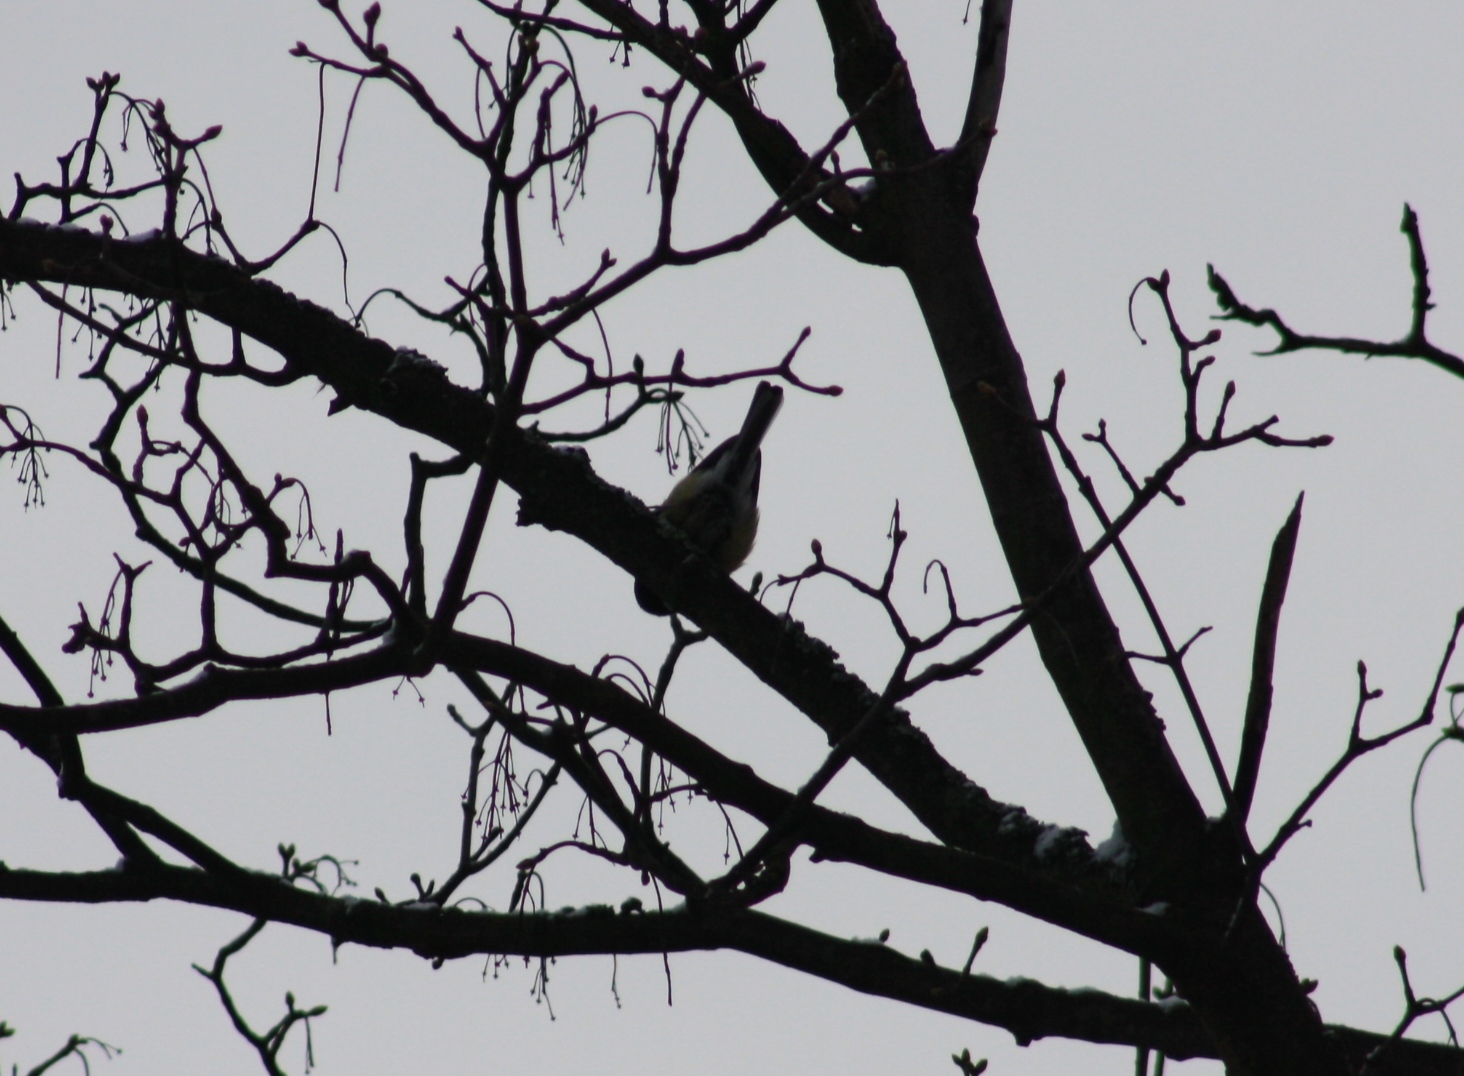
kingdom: Animalia
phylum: Chordata
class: Aves
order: Passeriformes
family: Paridae
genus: Parus
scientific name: Parus major
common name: Great tit
